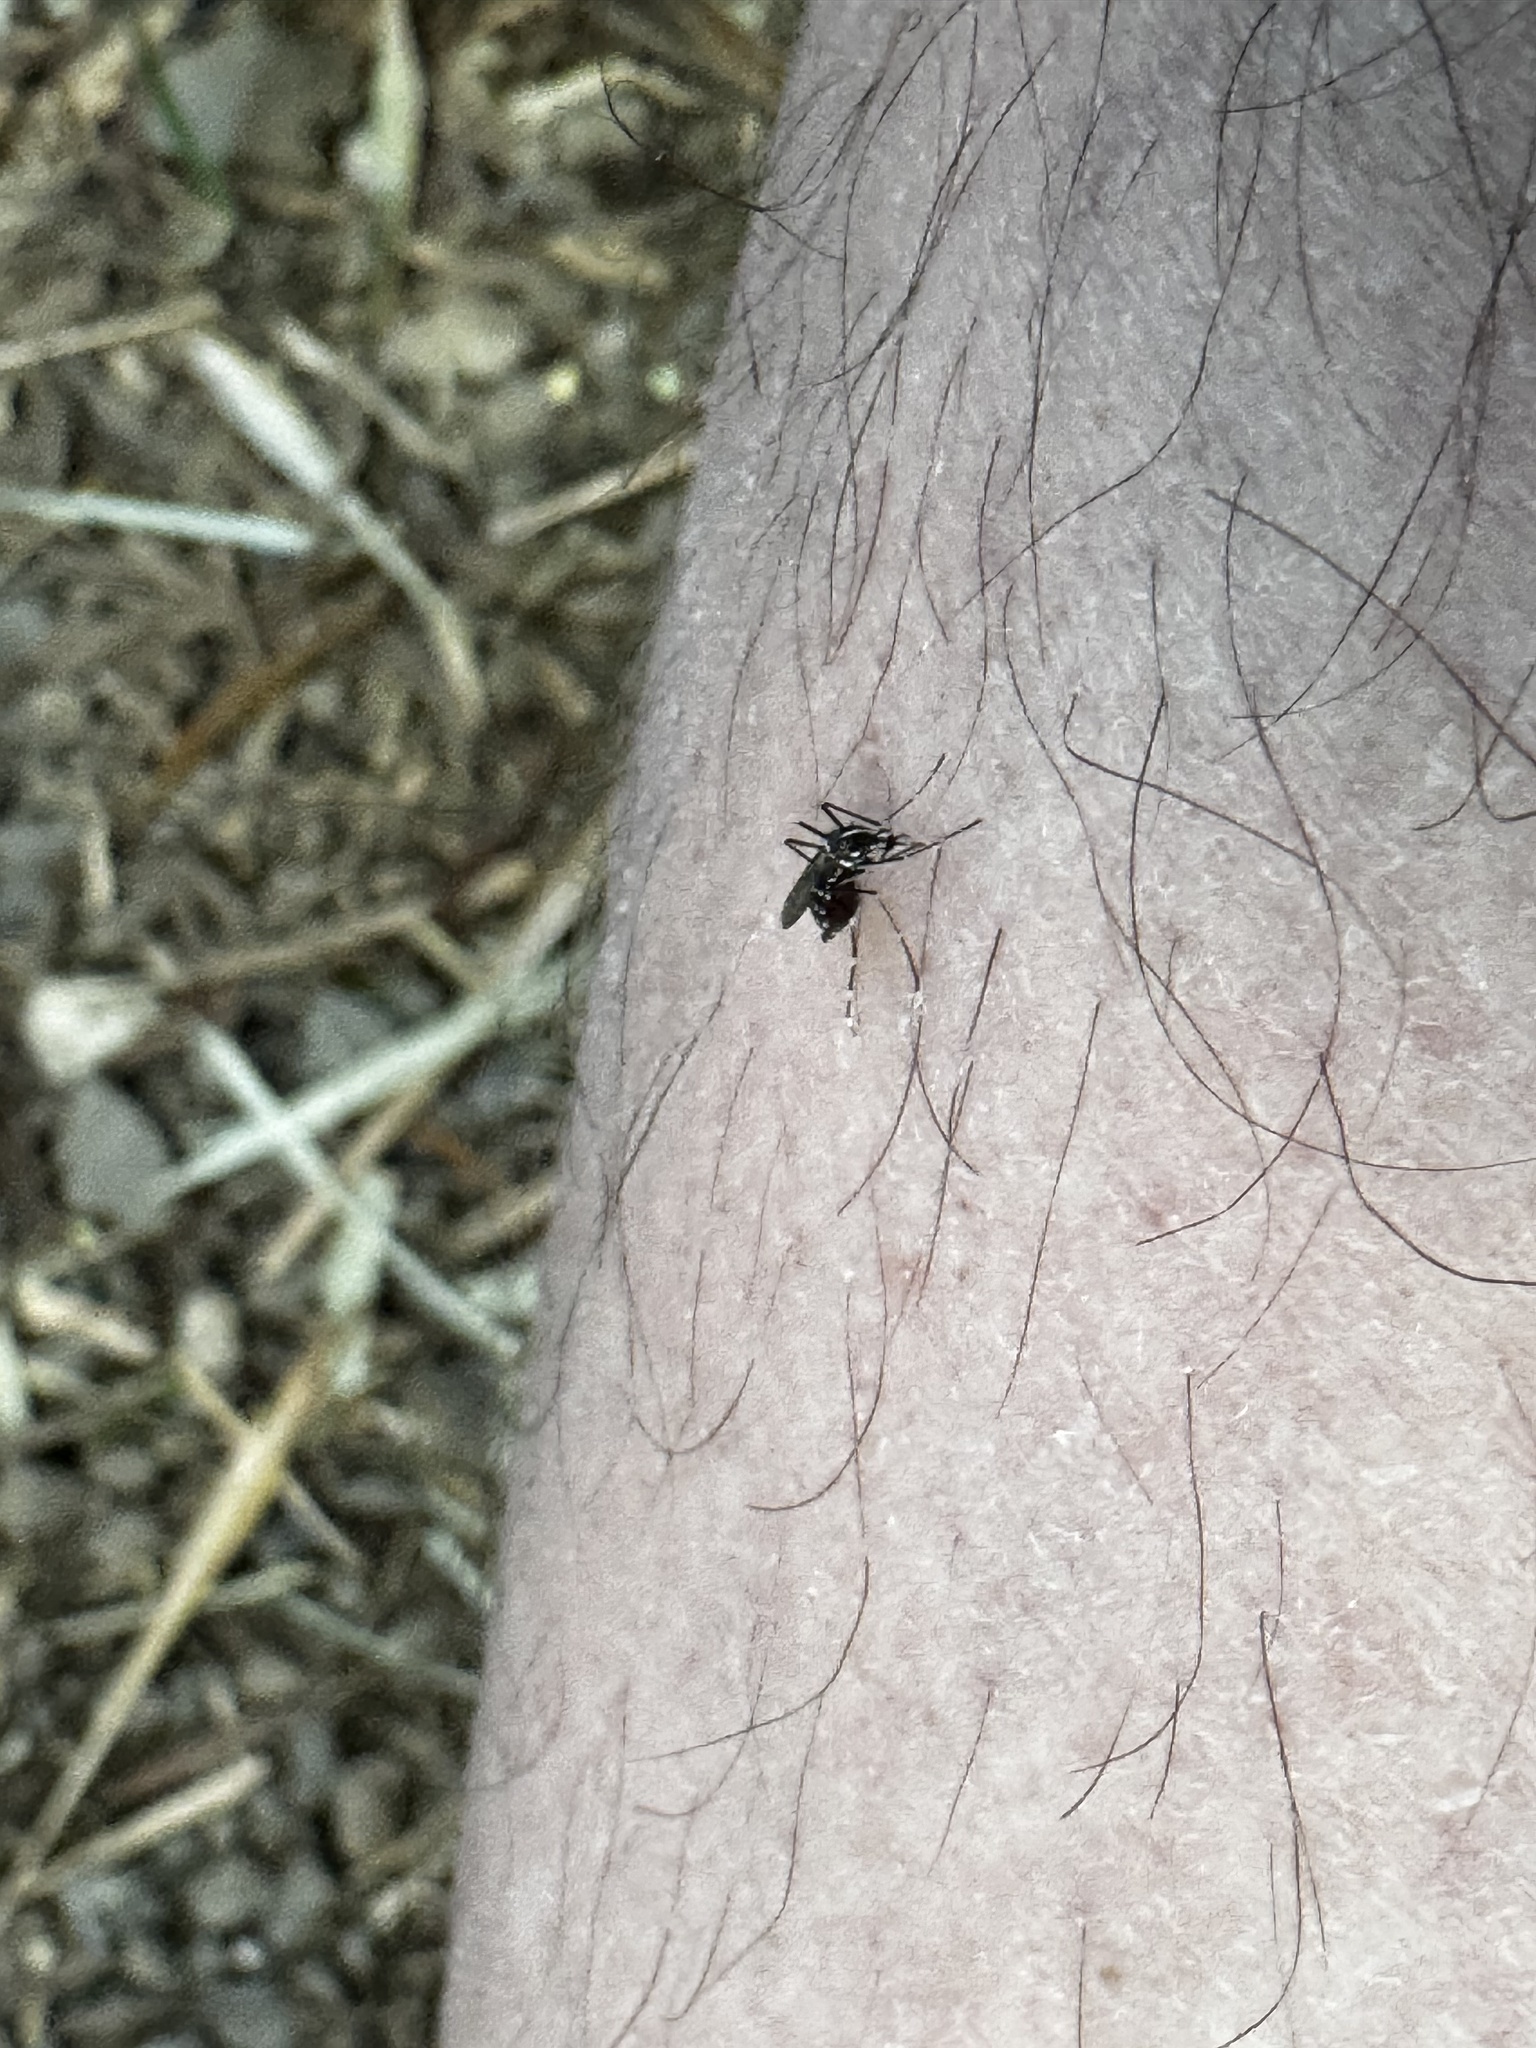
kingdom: Animalia
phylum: Arthropoda
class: Insecta
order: Diptera
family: Culicidae
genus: Aedes
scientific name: Aedes albopictus
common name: Tiger mosquito
